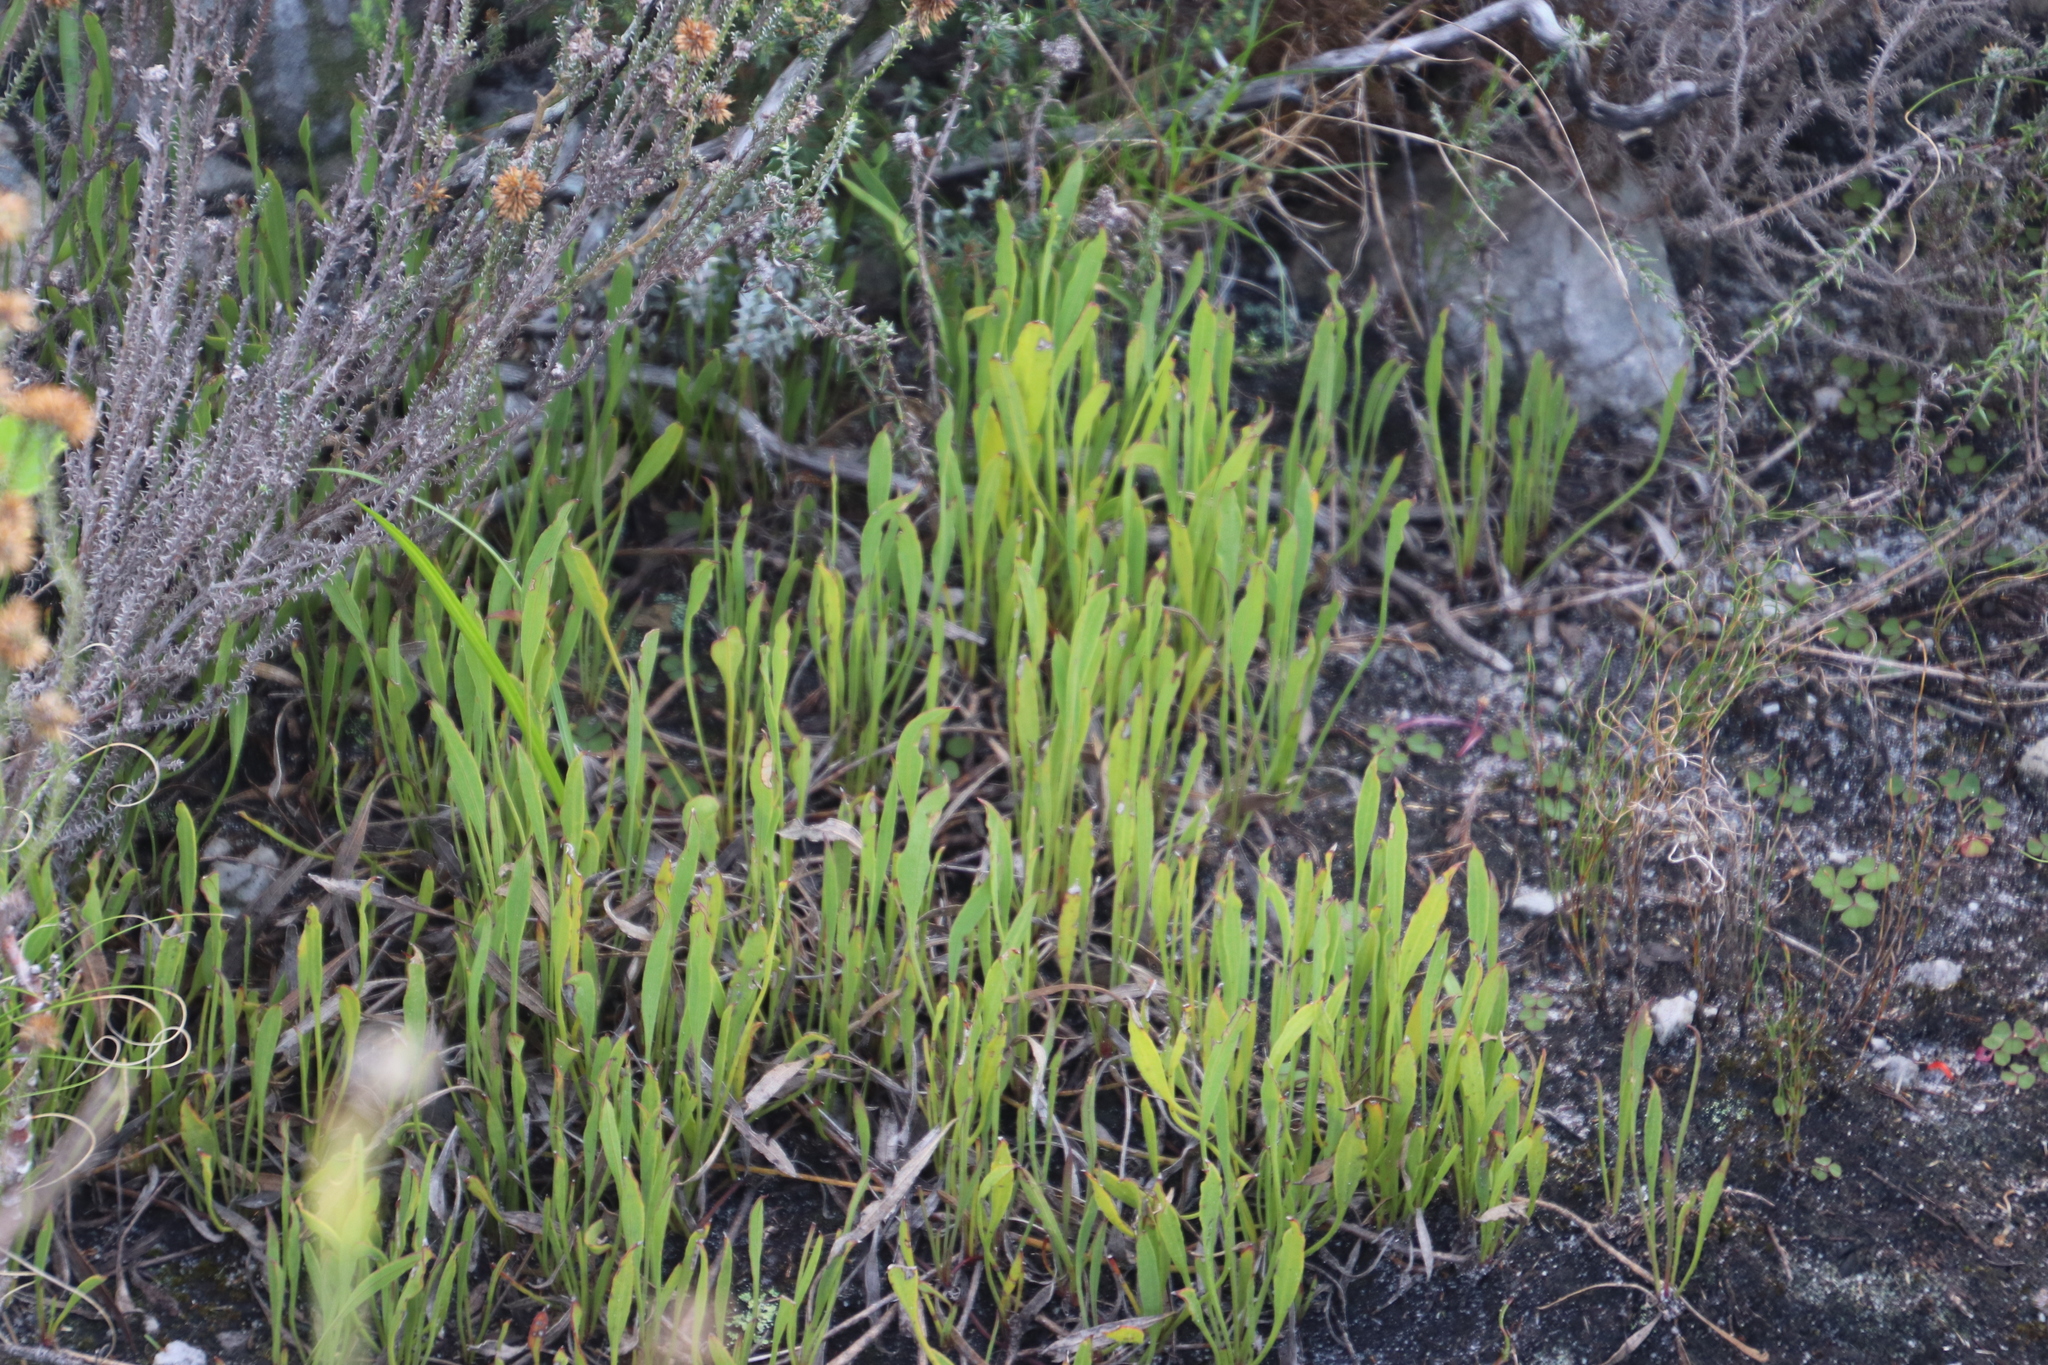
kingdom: Plantae
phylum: Tracheophyta
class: Magnoliopsida
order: Apiales
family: Apiaceae
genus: Centella
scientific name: Centella glabrata
